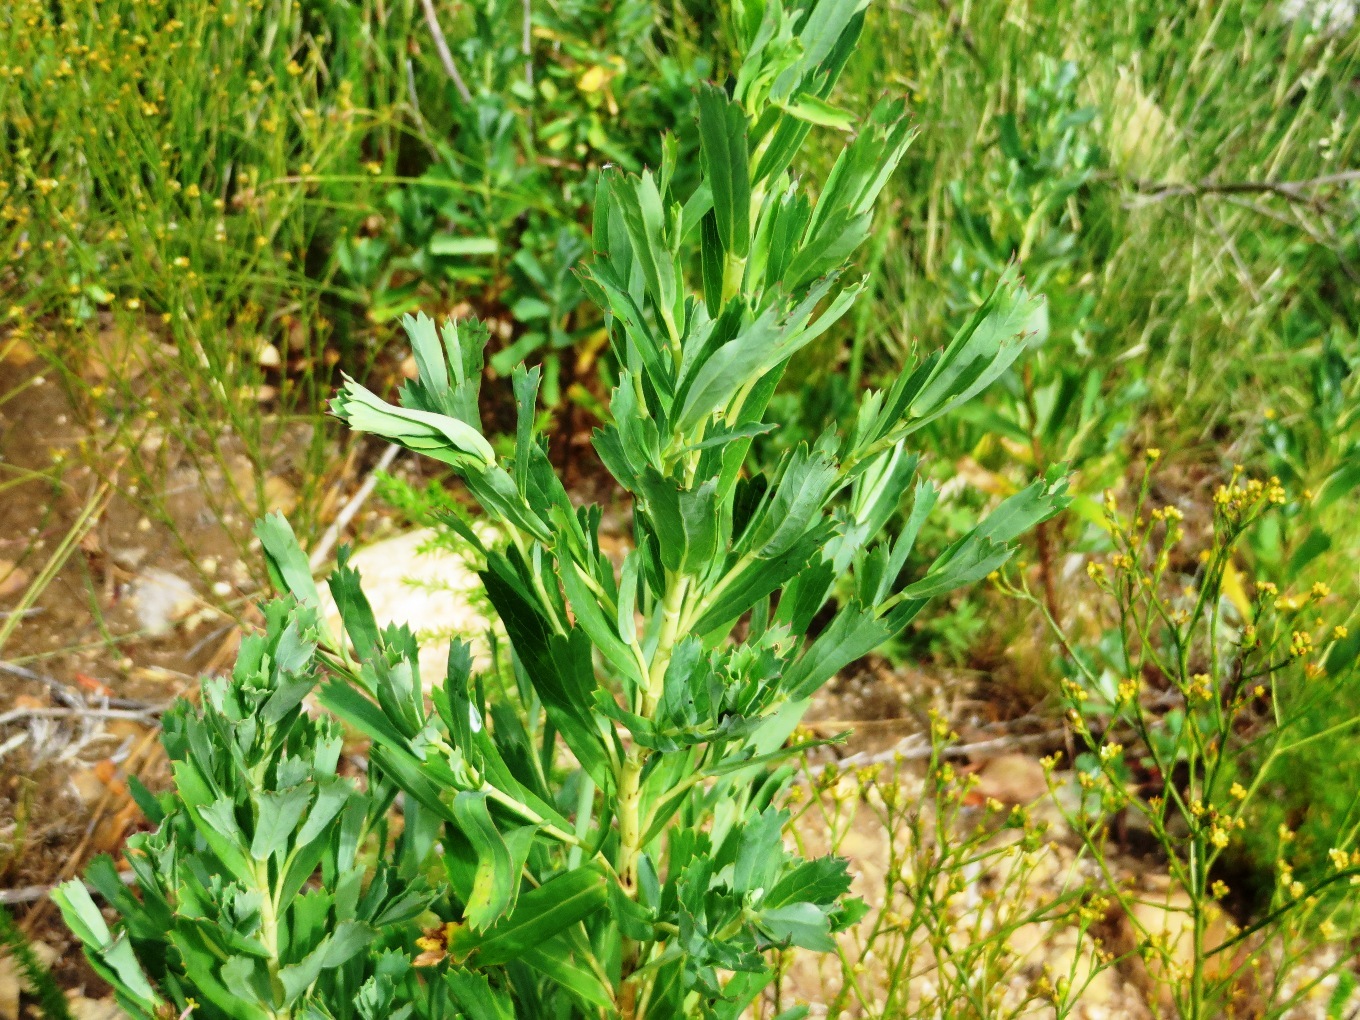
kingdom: Plantae
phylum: Tracheophyta
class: Magnoliopsida
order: Rosales
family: Rosaceae
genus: Cliffortia
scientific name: Cliffortia cuneata
